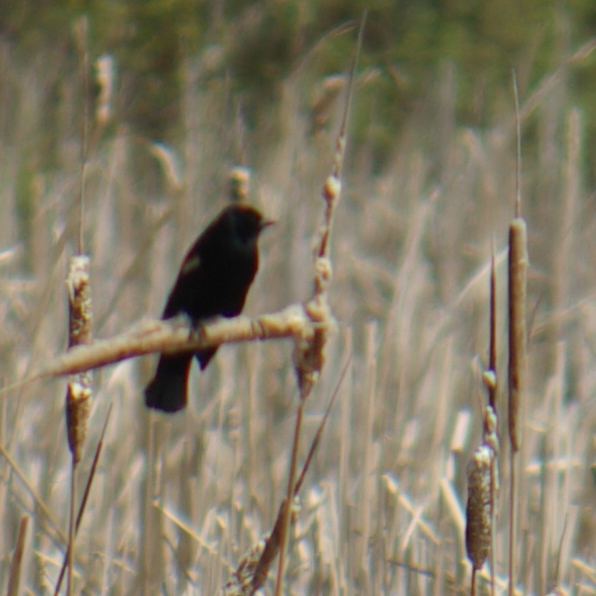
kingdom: Animalia
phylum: Chordata
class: Aves
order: Passeriformes
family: Icteridae
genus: Agelaius
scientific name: Agelaius phoeniceus
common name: Red-winged blackbird
